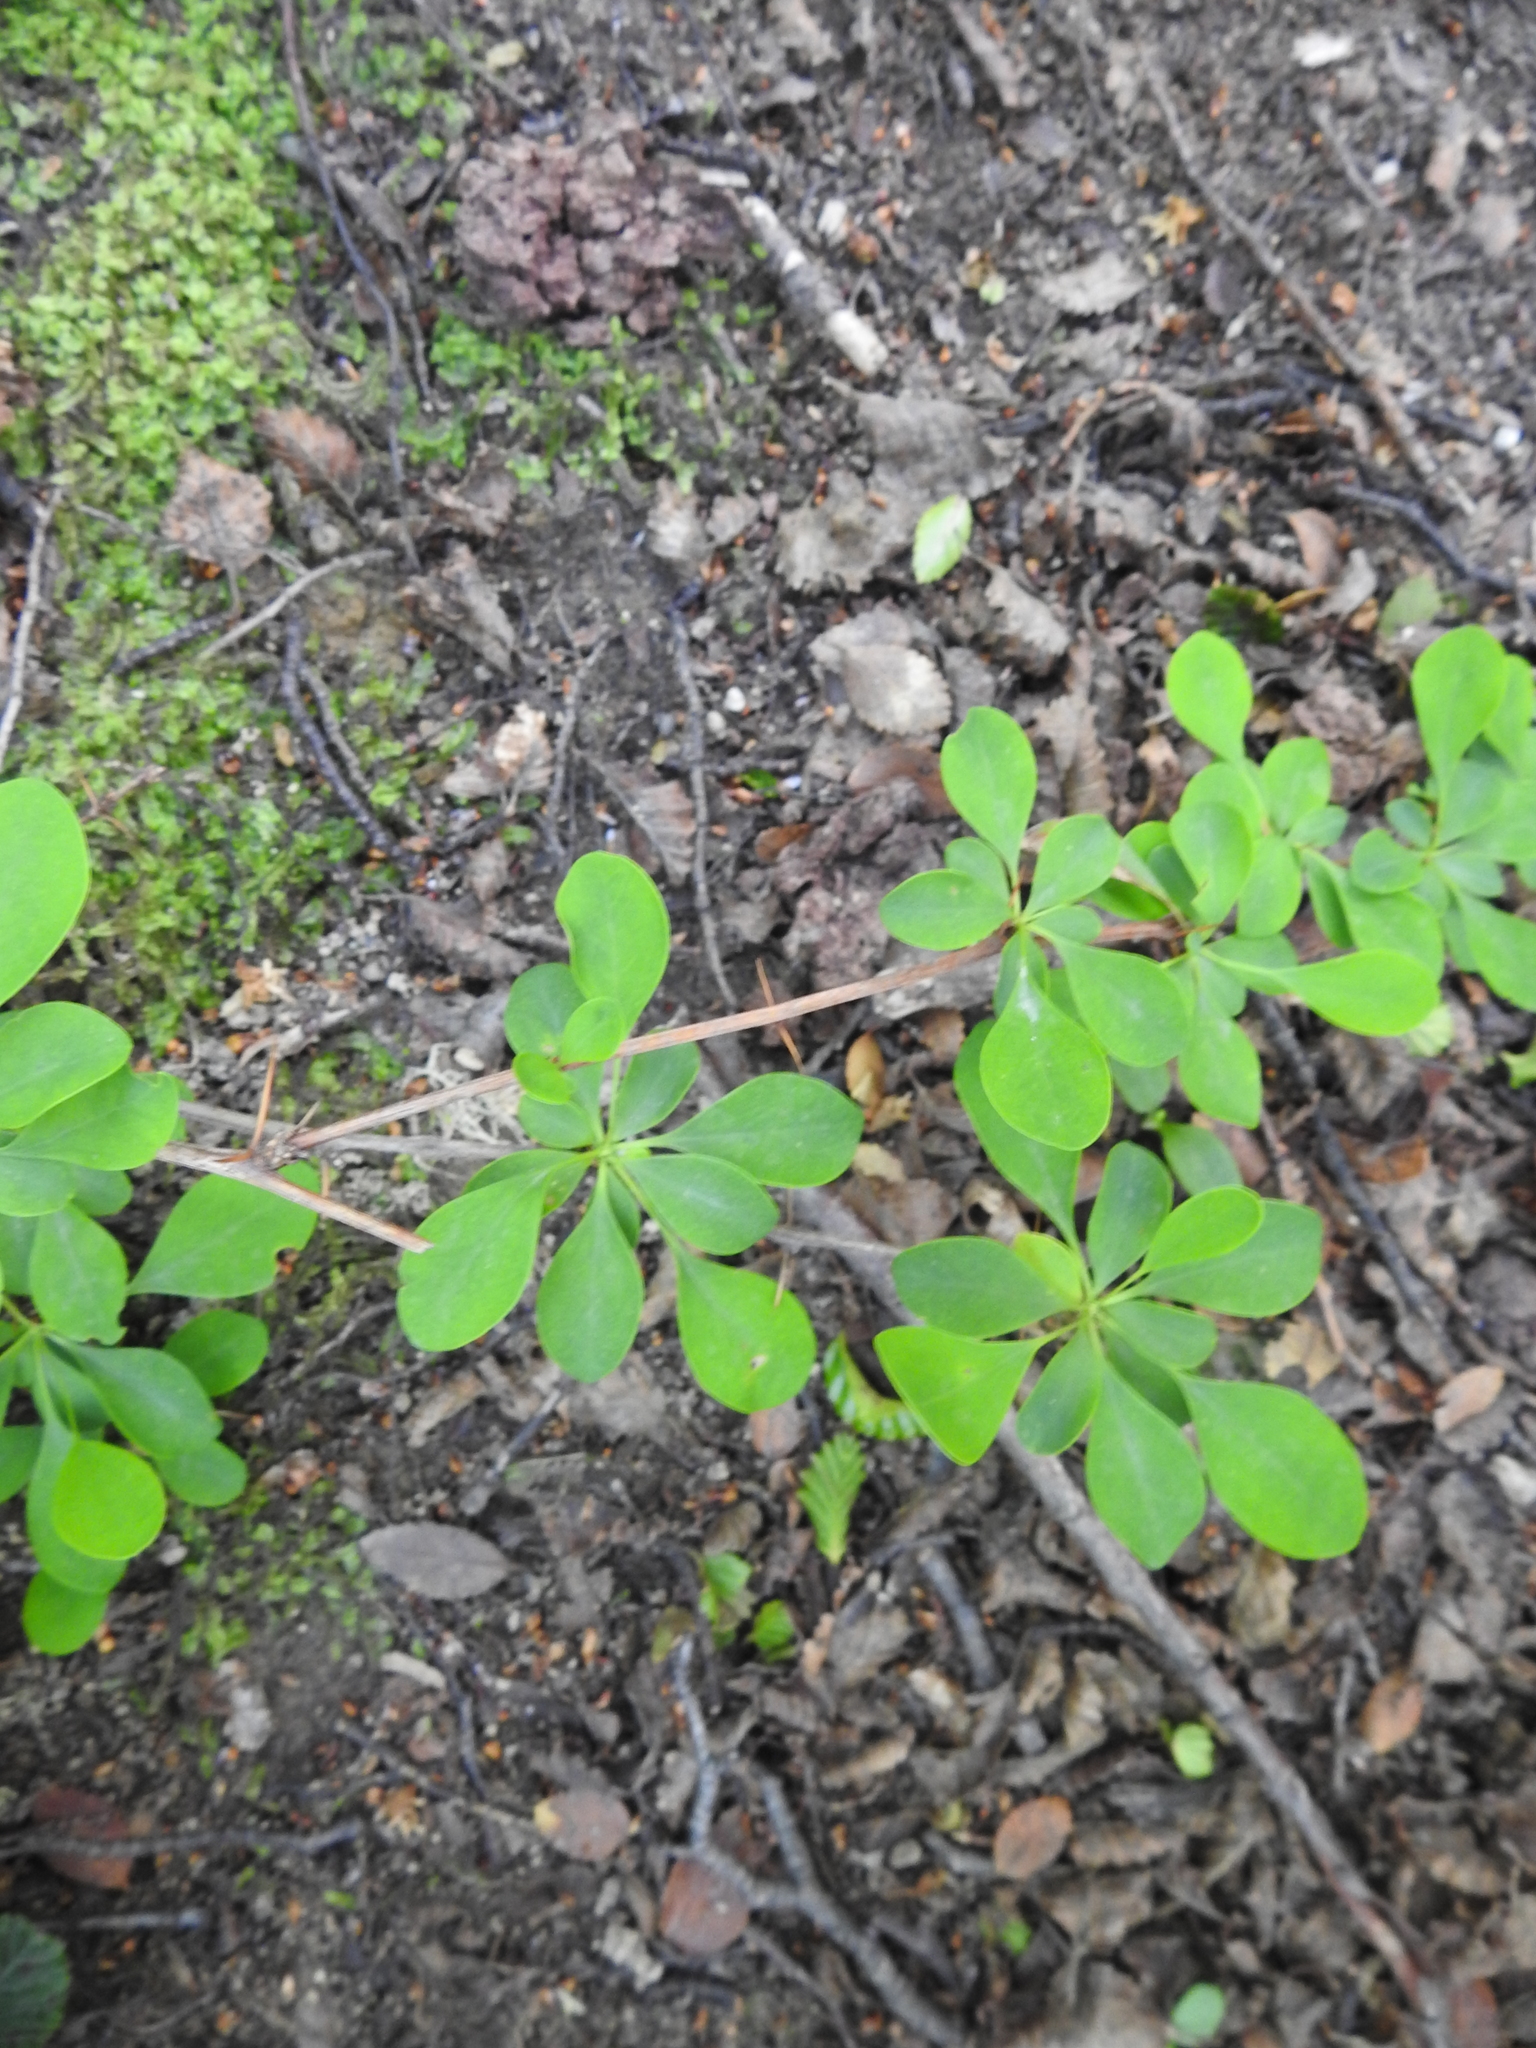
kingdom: Plantae
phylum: Tracheophyta
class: Magnoliopsida
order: Ranunculales
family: Berberidaceae
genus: Berberis
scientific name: Berberis microphylla
